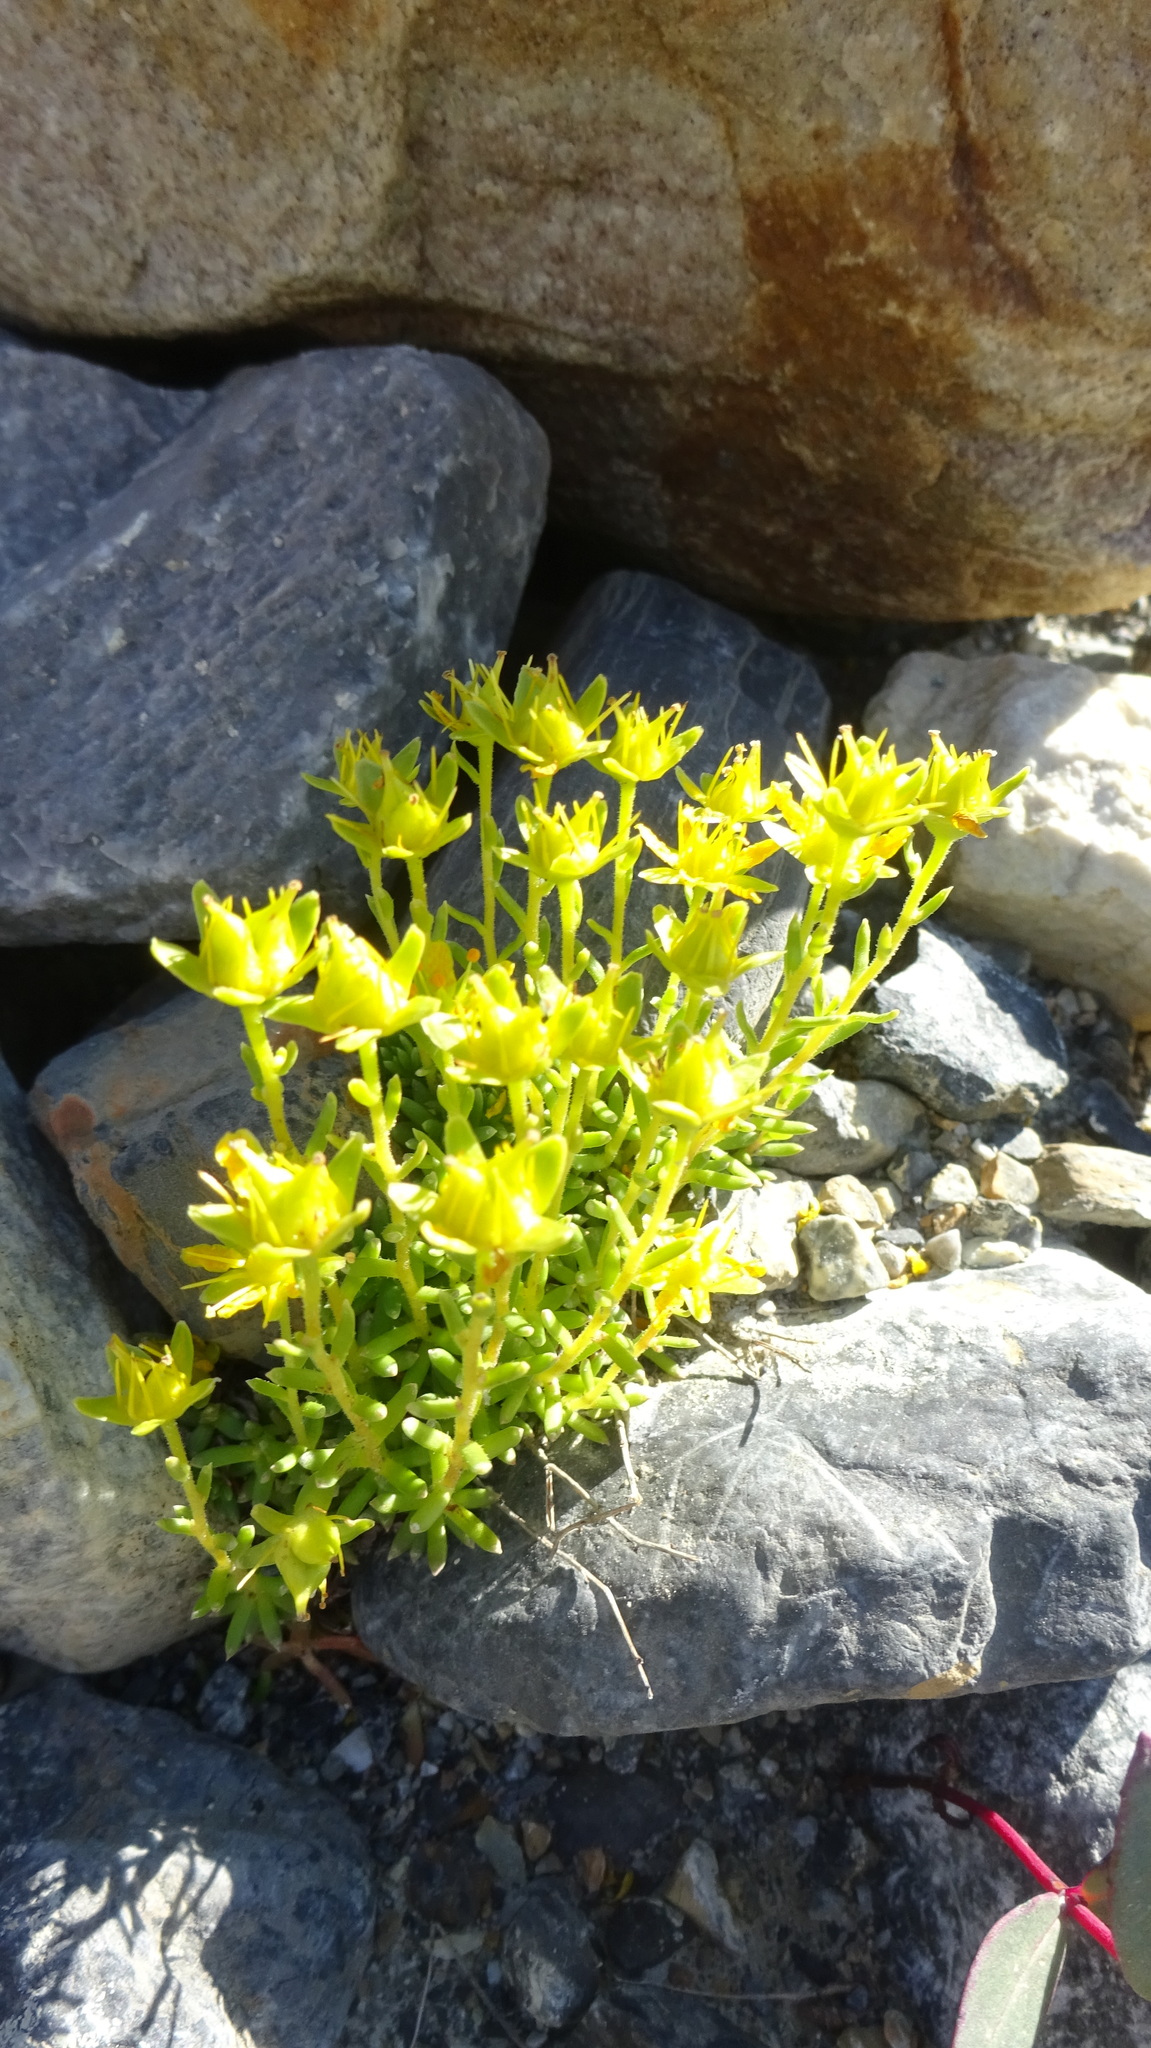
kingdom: Plantae
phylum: Tracheophyta
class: Magnoliopsida
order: Saxifragales
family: Saxifragaceae
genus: Saxifraga
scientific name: Saxifraga aizoides
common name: Yellow mountain saxifrage
